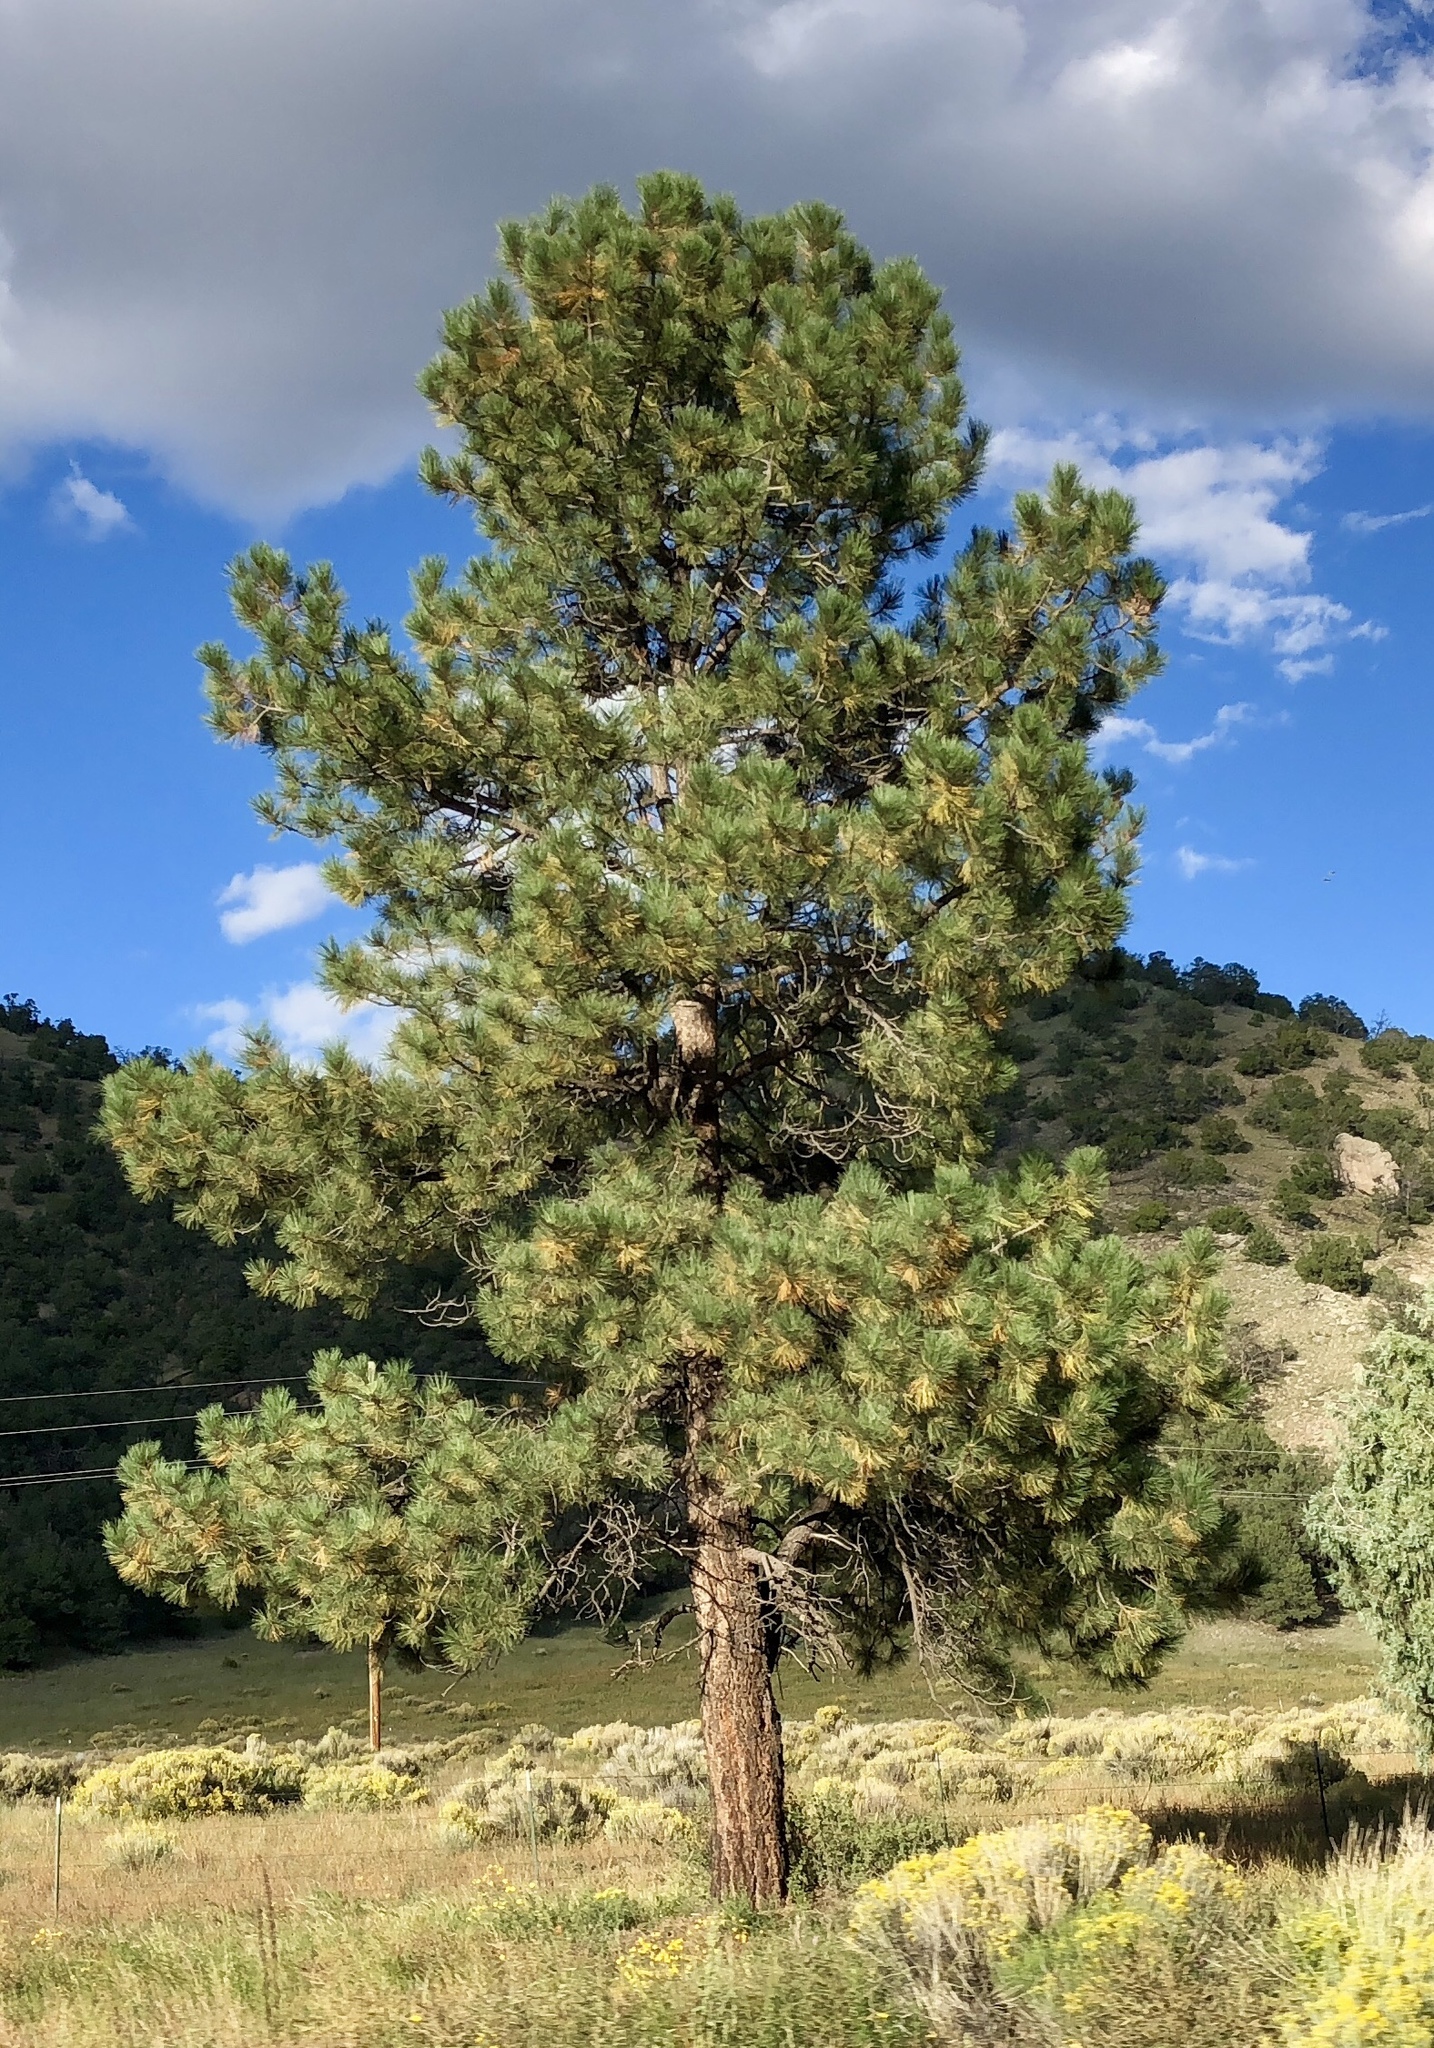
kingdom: Plantae
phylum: Tracheophyta
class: Pinopsida
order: Pinales
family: Pinaceae
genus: Pinus
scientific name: Pinus ponderosa
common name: Western yellow-pine
